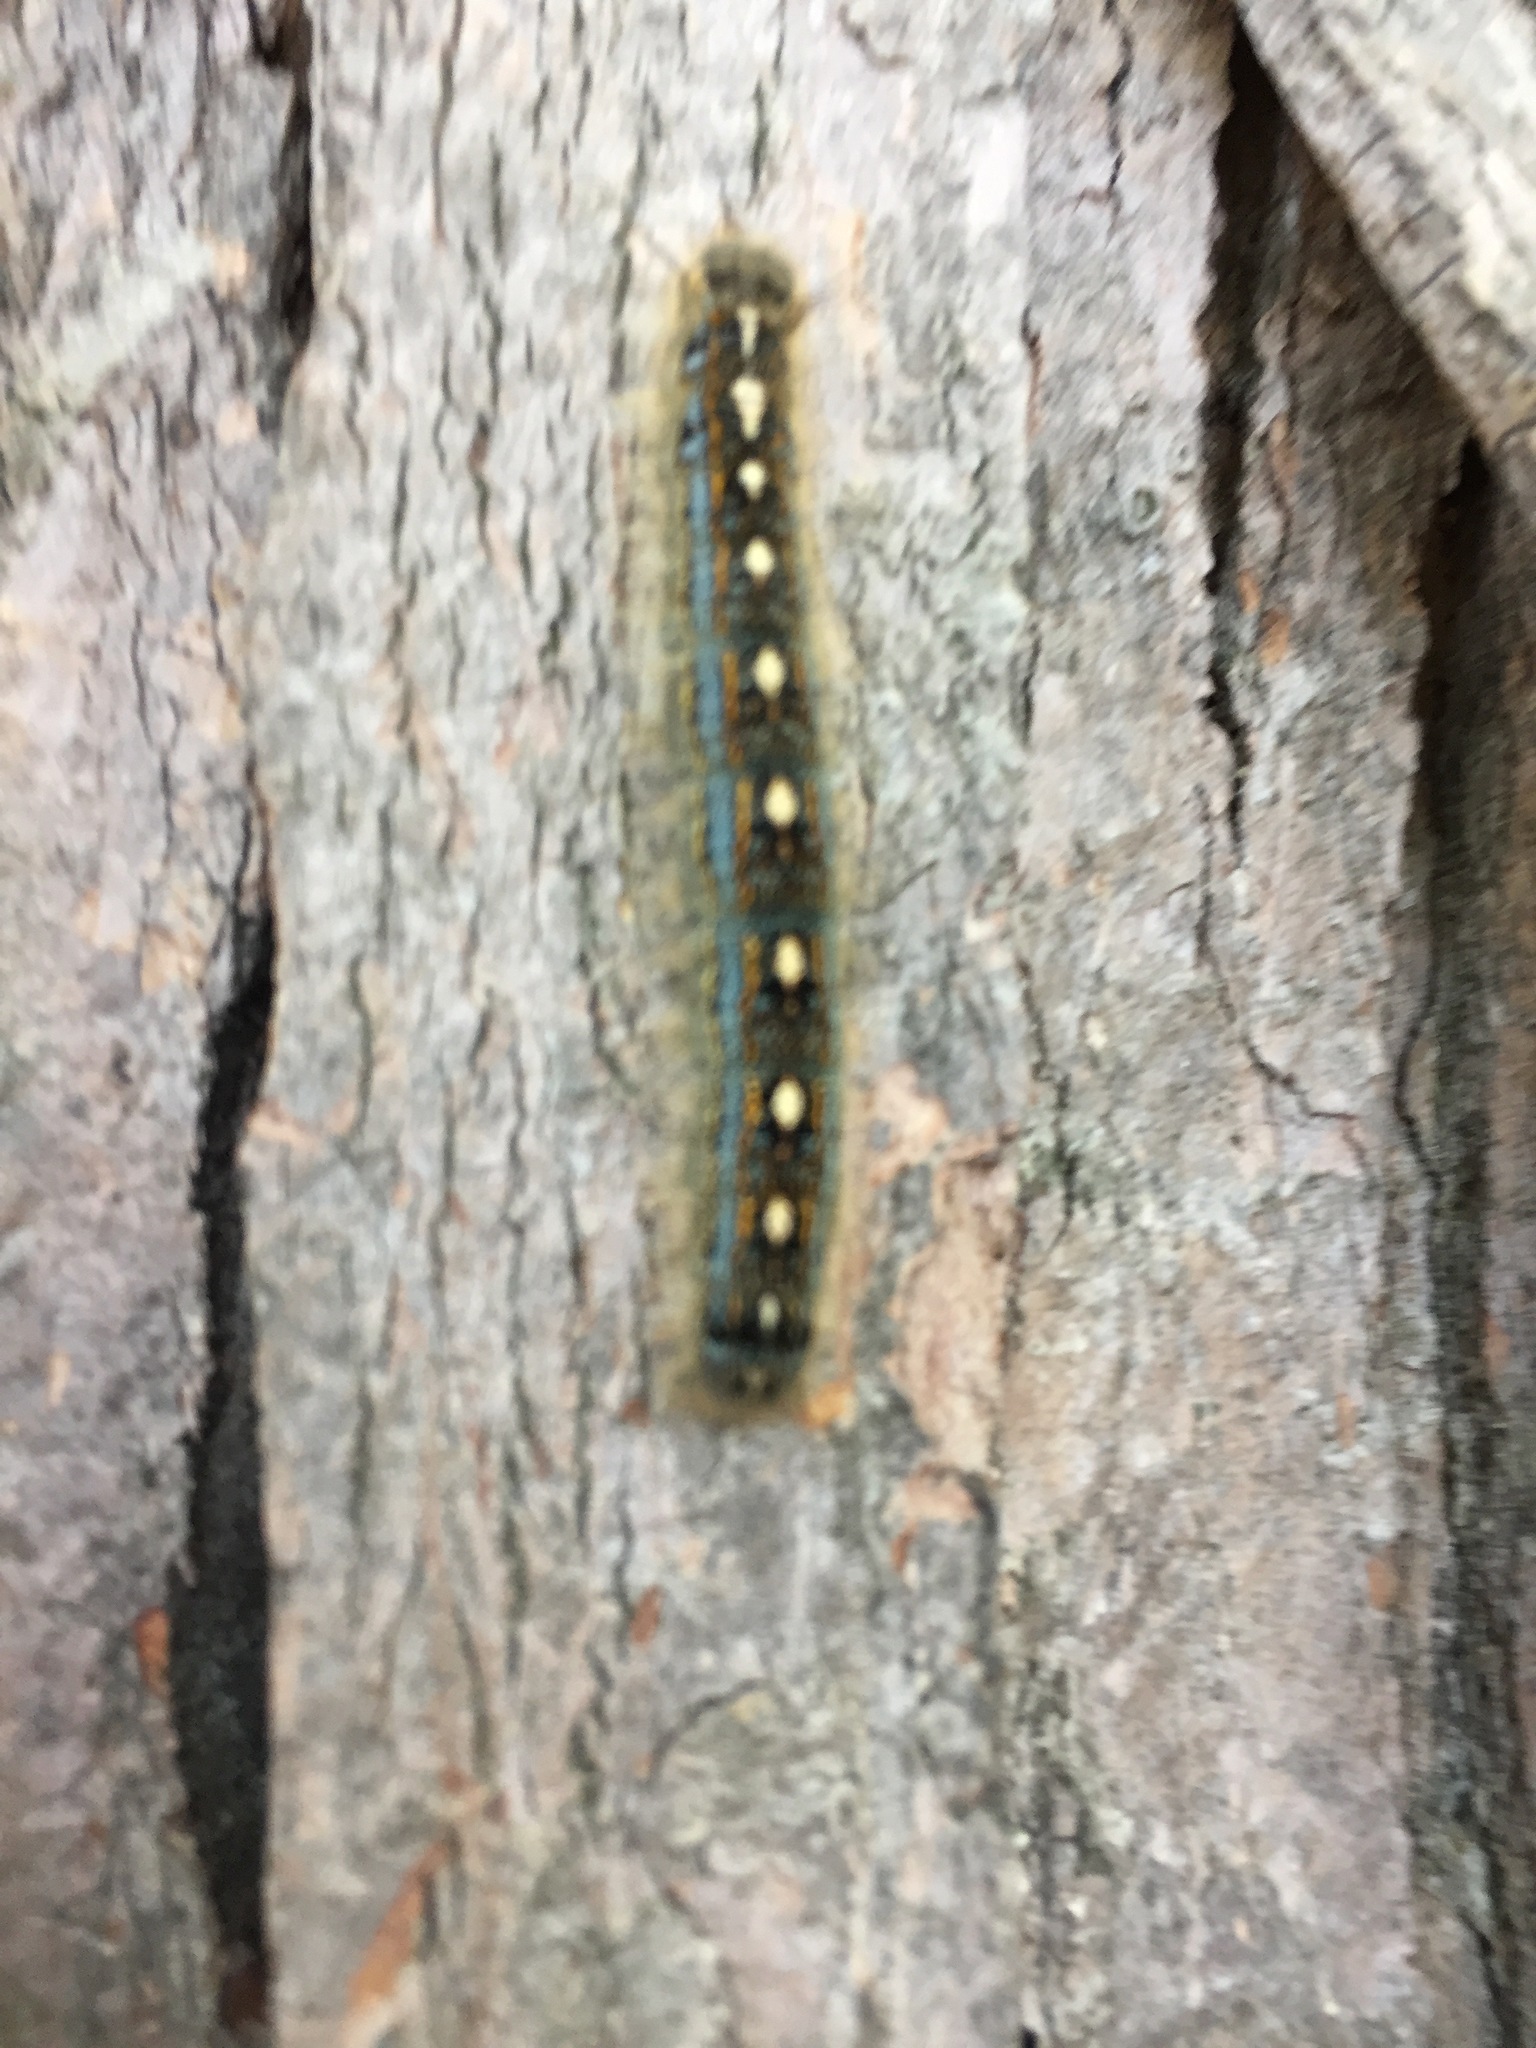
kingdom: Animalia
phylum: Arthropoda
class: Insecta
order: Lepidoptera
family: Lasiocampidae
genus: Malacosoma
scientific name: Malacosoma disstria
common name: Forest tent caterpillar
